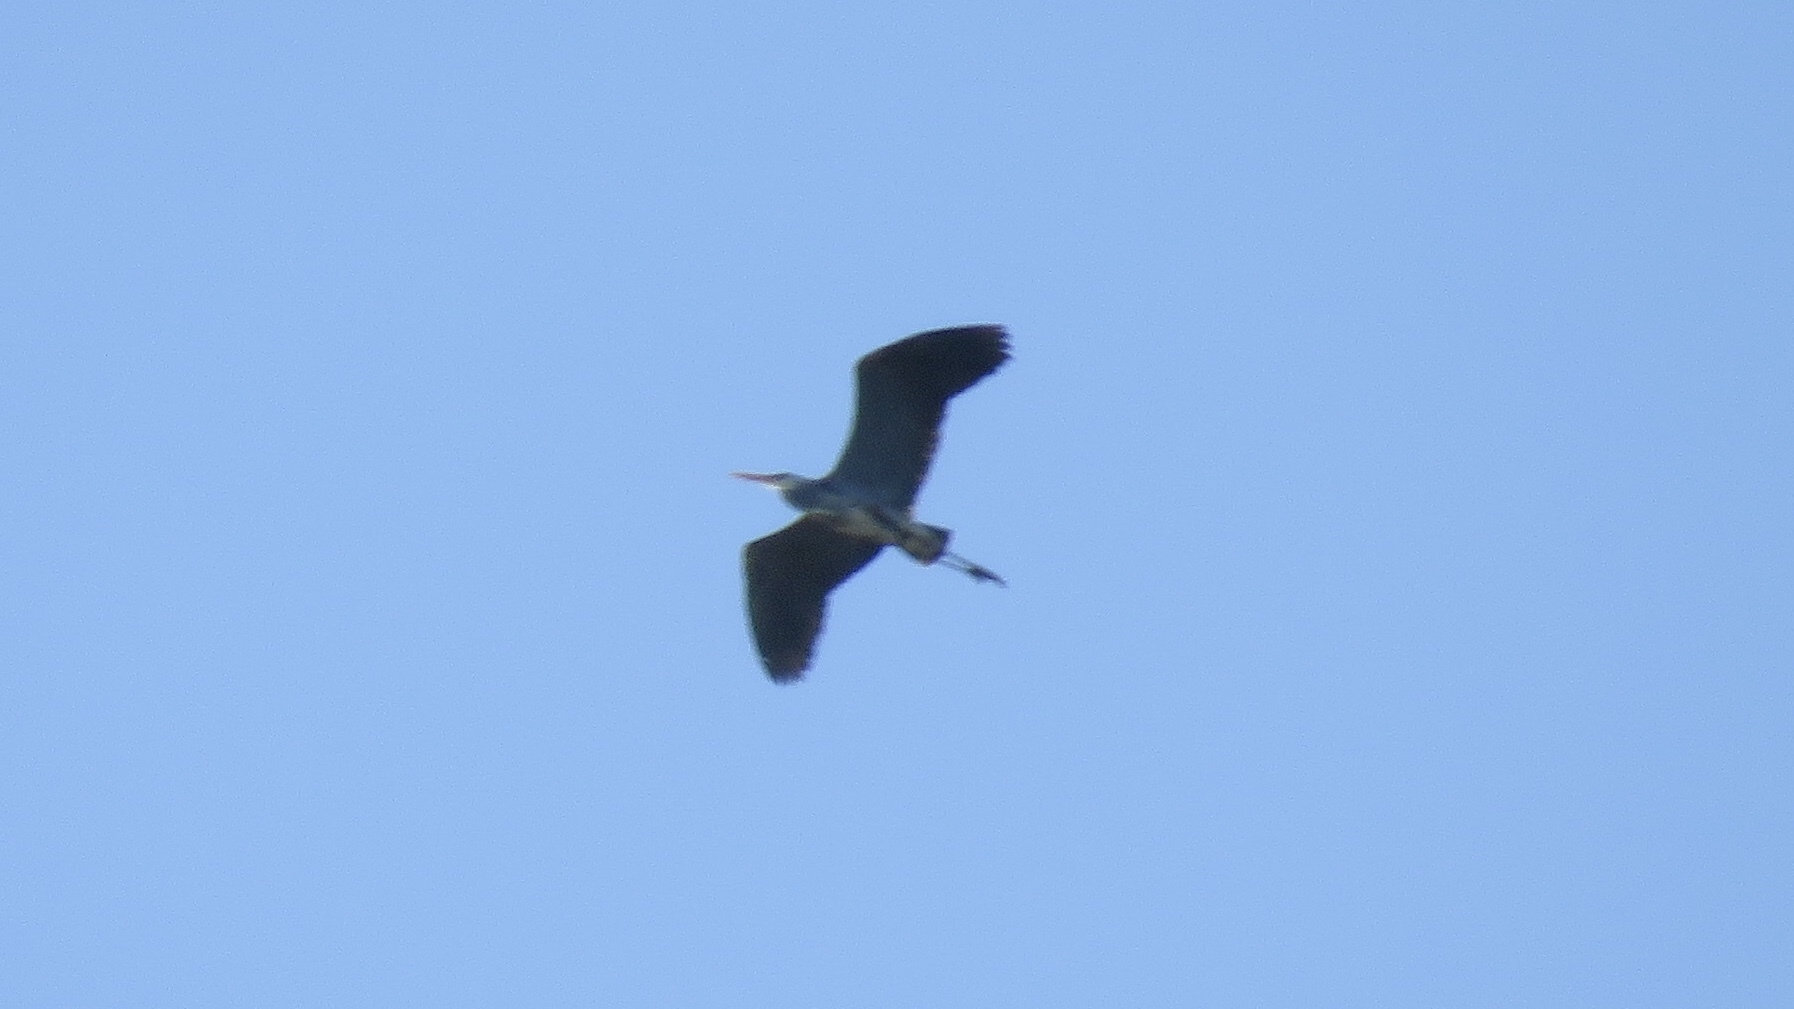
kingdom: Animalia
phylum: Chordata
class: Aves
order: Pelecaniformes
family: Ardeidae
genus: Ardea
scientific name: Ardea herodias
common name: Great blue heron
